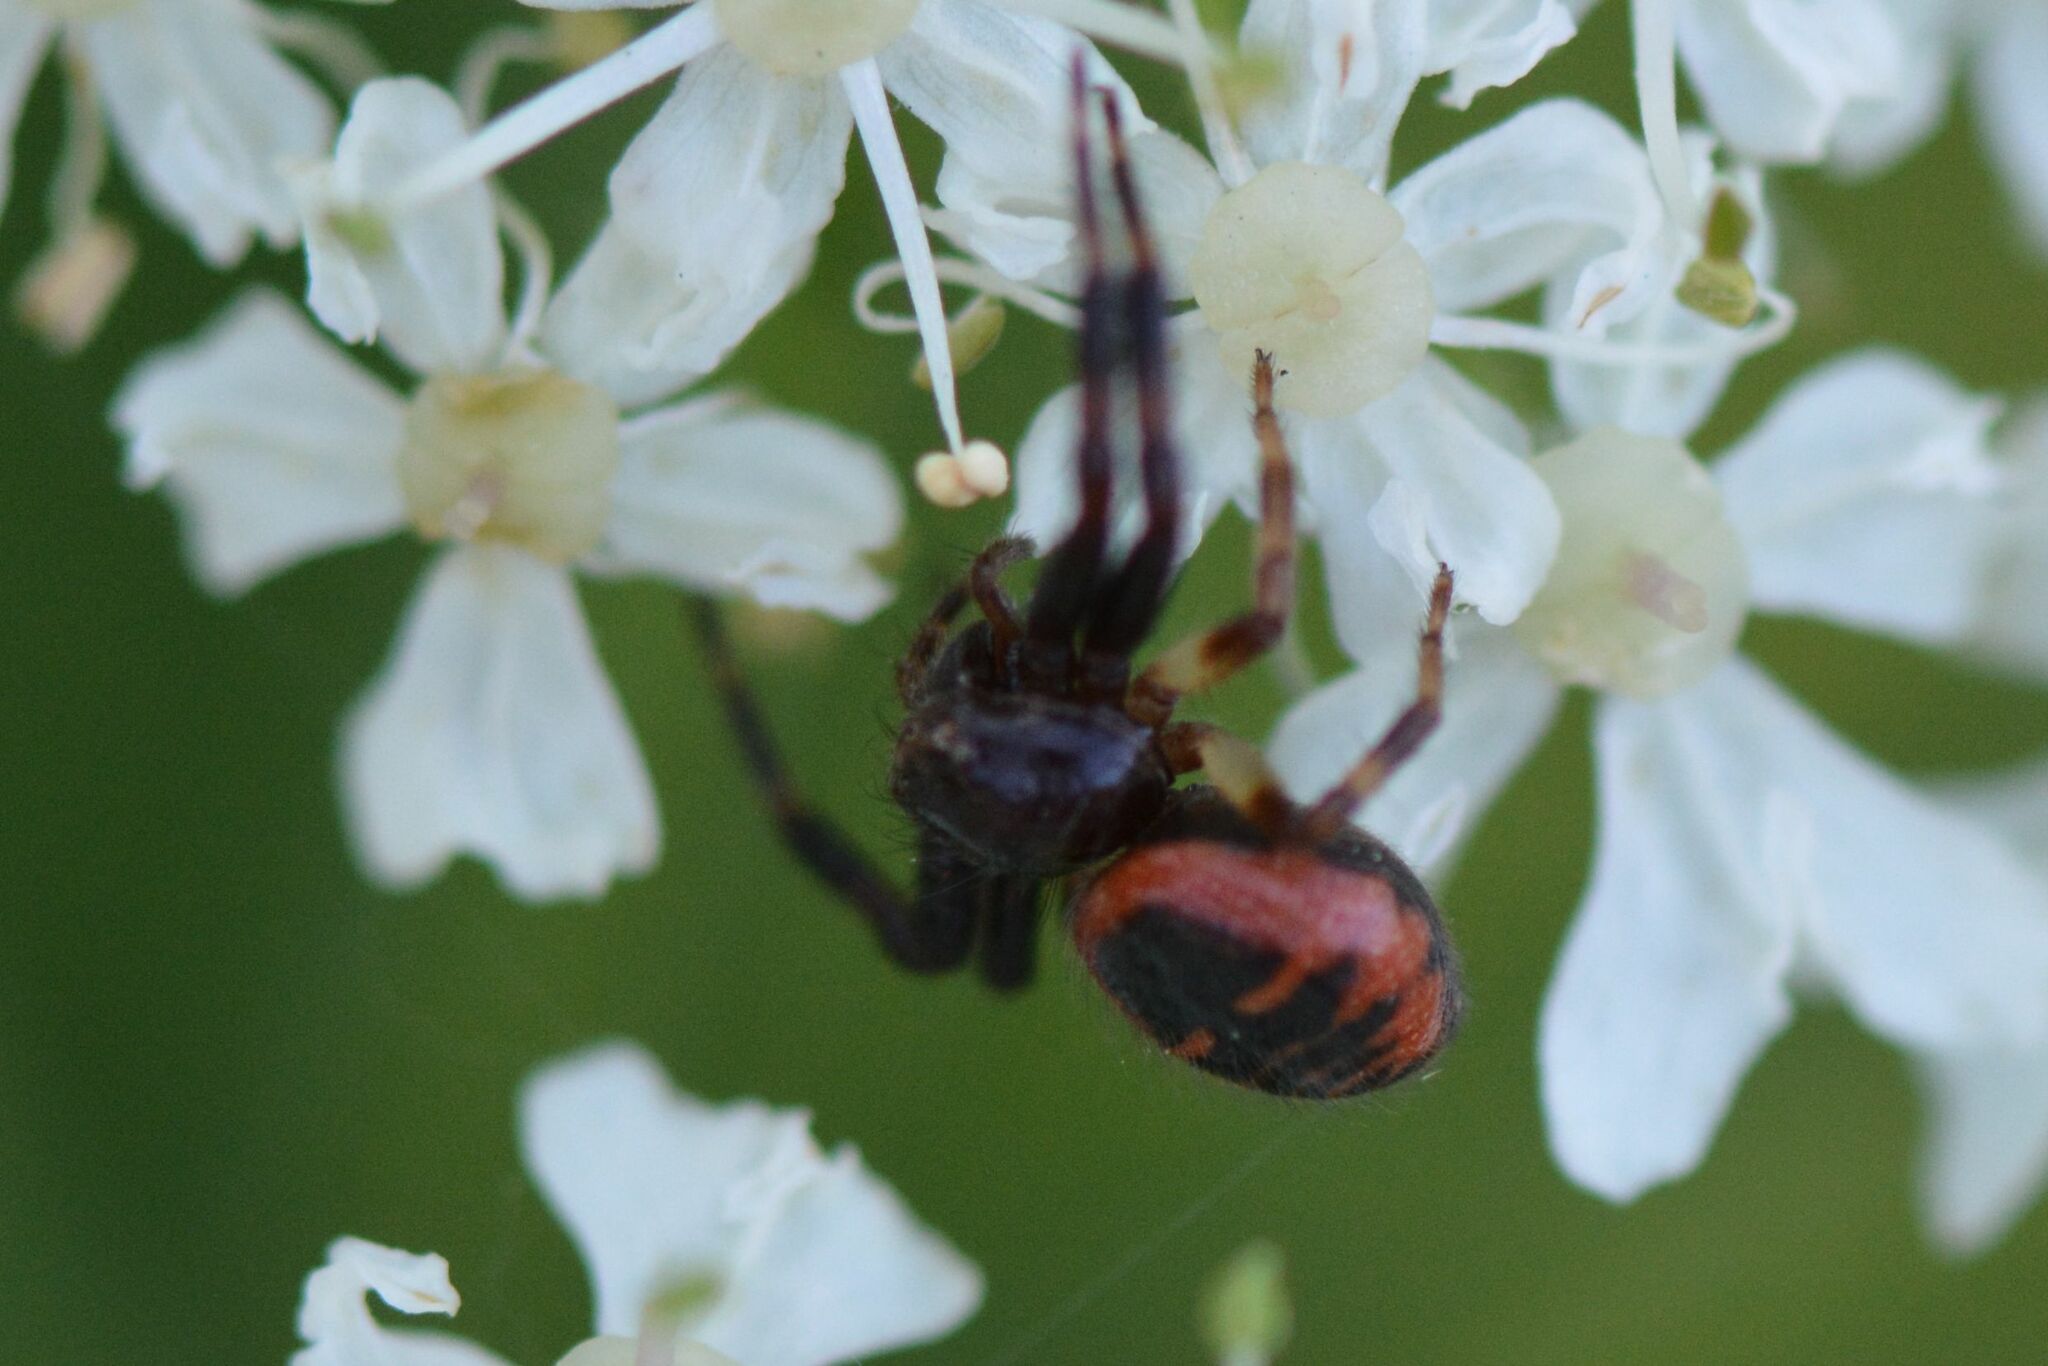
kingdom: Animalia
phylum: Arthropoda
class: Arachnida
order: Araneae
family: Thomisidae
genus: Synema
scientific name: Synema globosum
